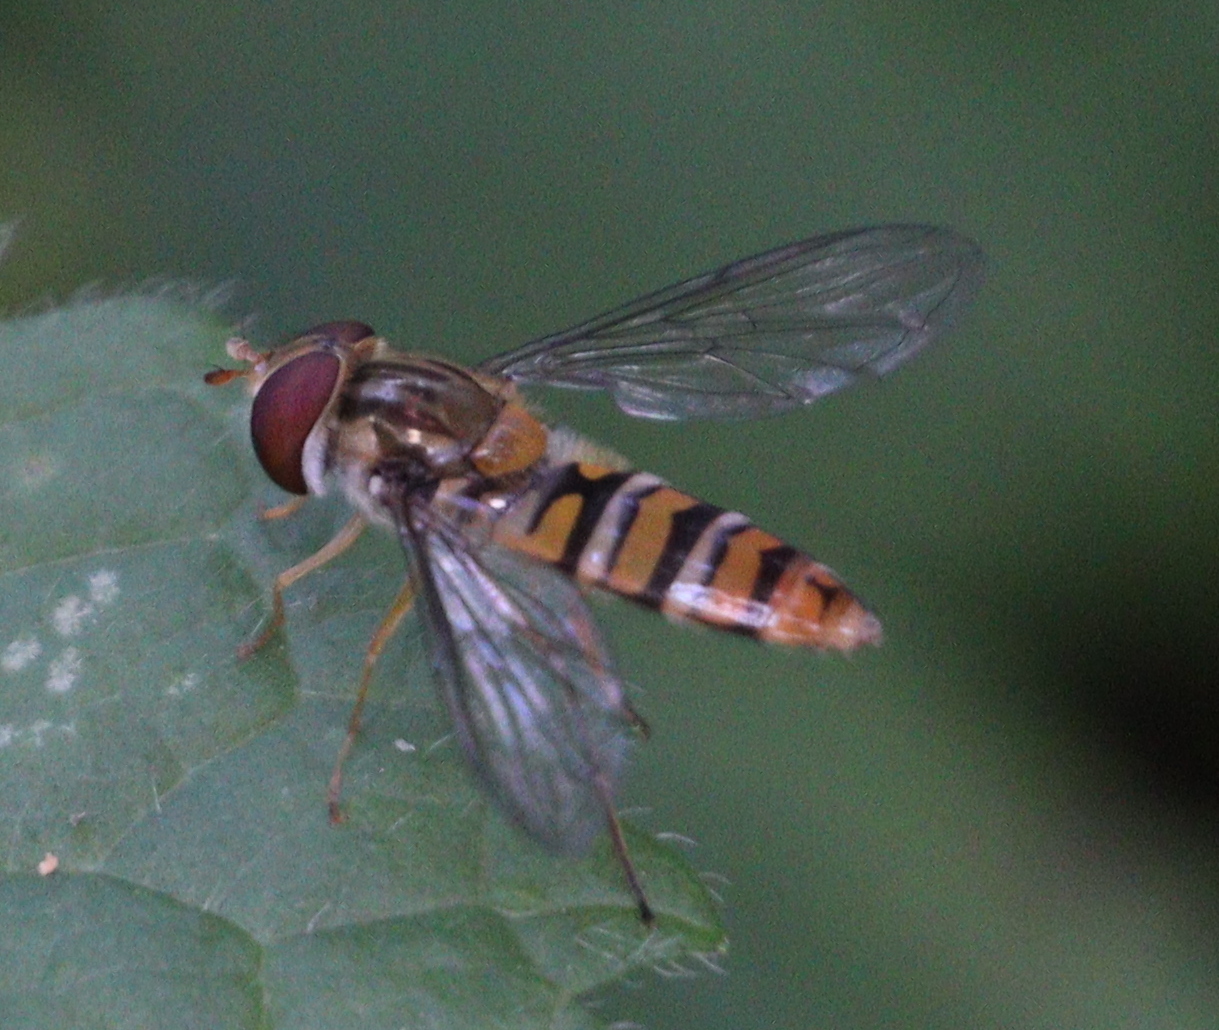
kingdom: Animalia
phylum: Arthropoda
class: Insecta
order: Diptera
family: Syrphidae
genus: Episyrphus
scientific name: Episyrphus balteatus
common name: Marmalade hoverfly
